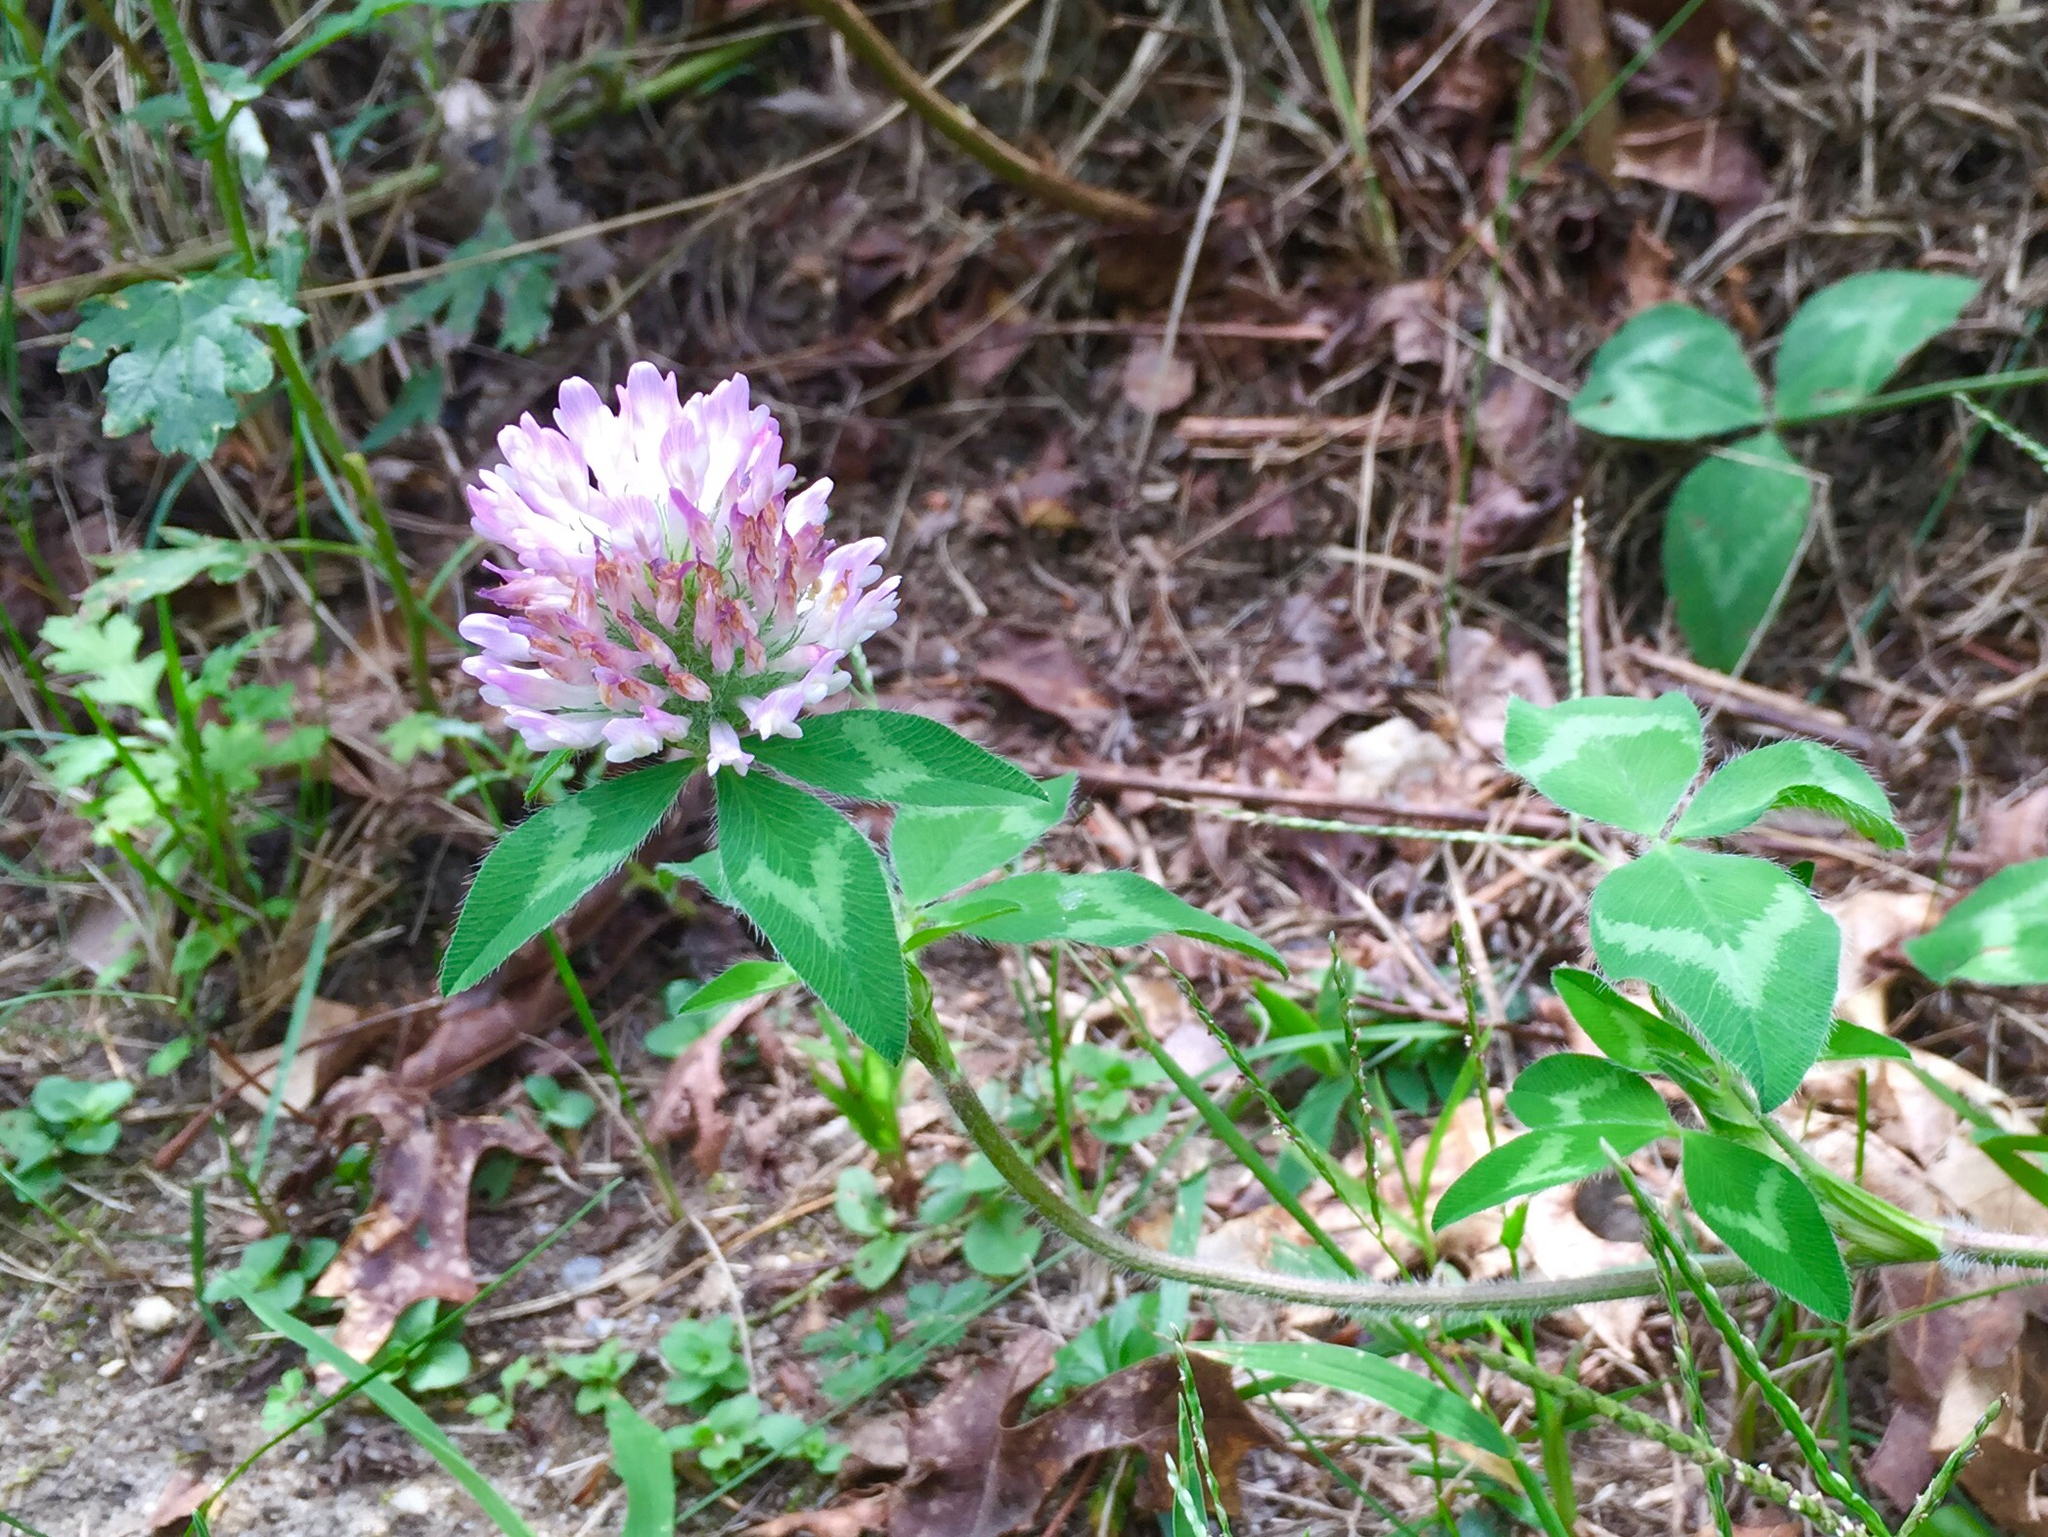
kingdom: Plantae
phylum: Tracheophyta
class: Magnoliopsida
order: Fabales
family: Fabaceae
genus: Trifolium
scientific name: Trifolium pratense
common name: Red clover
